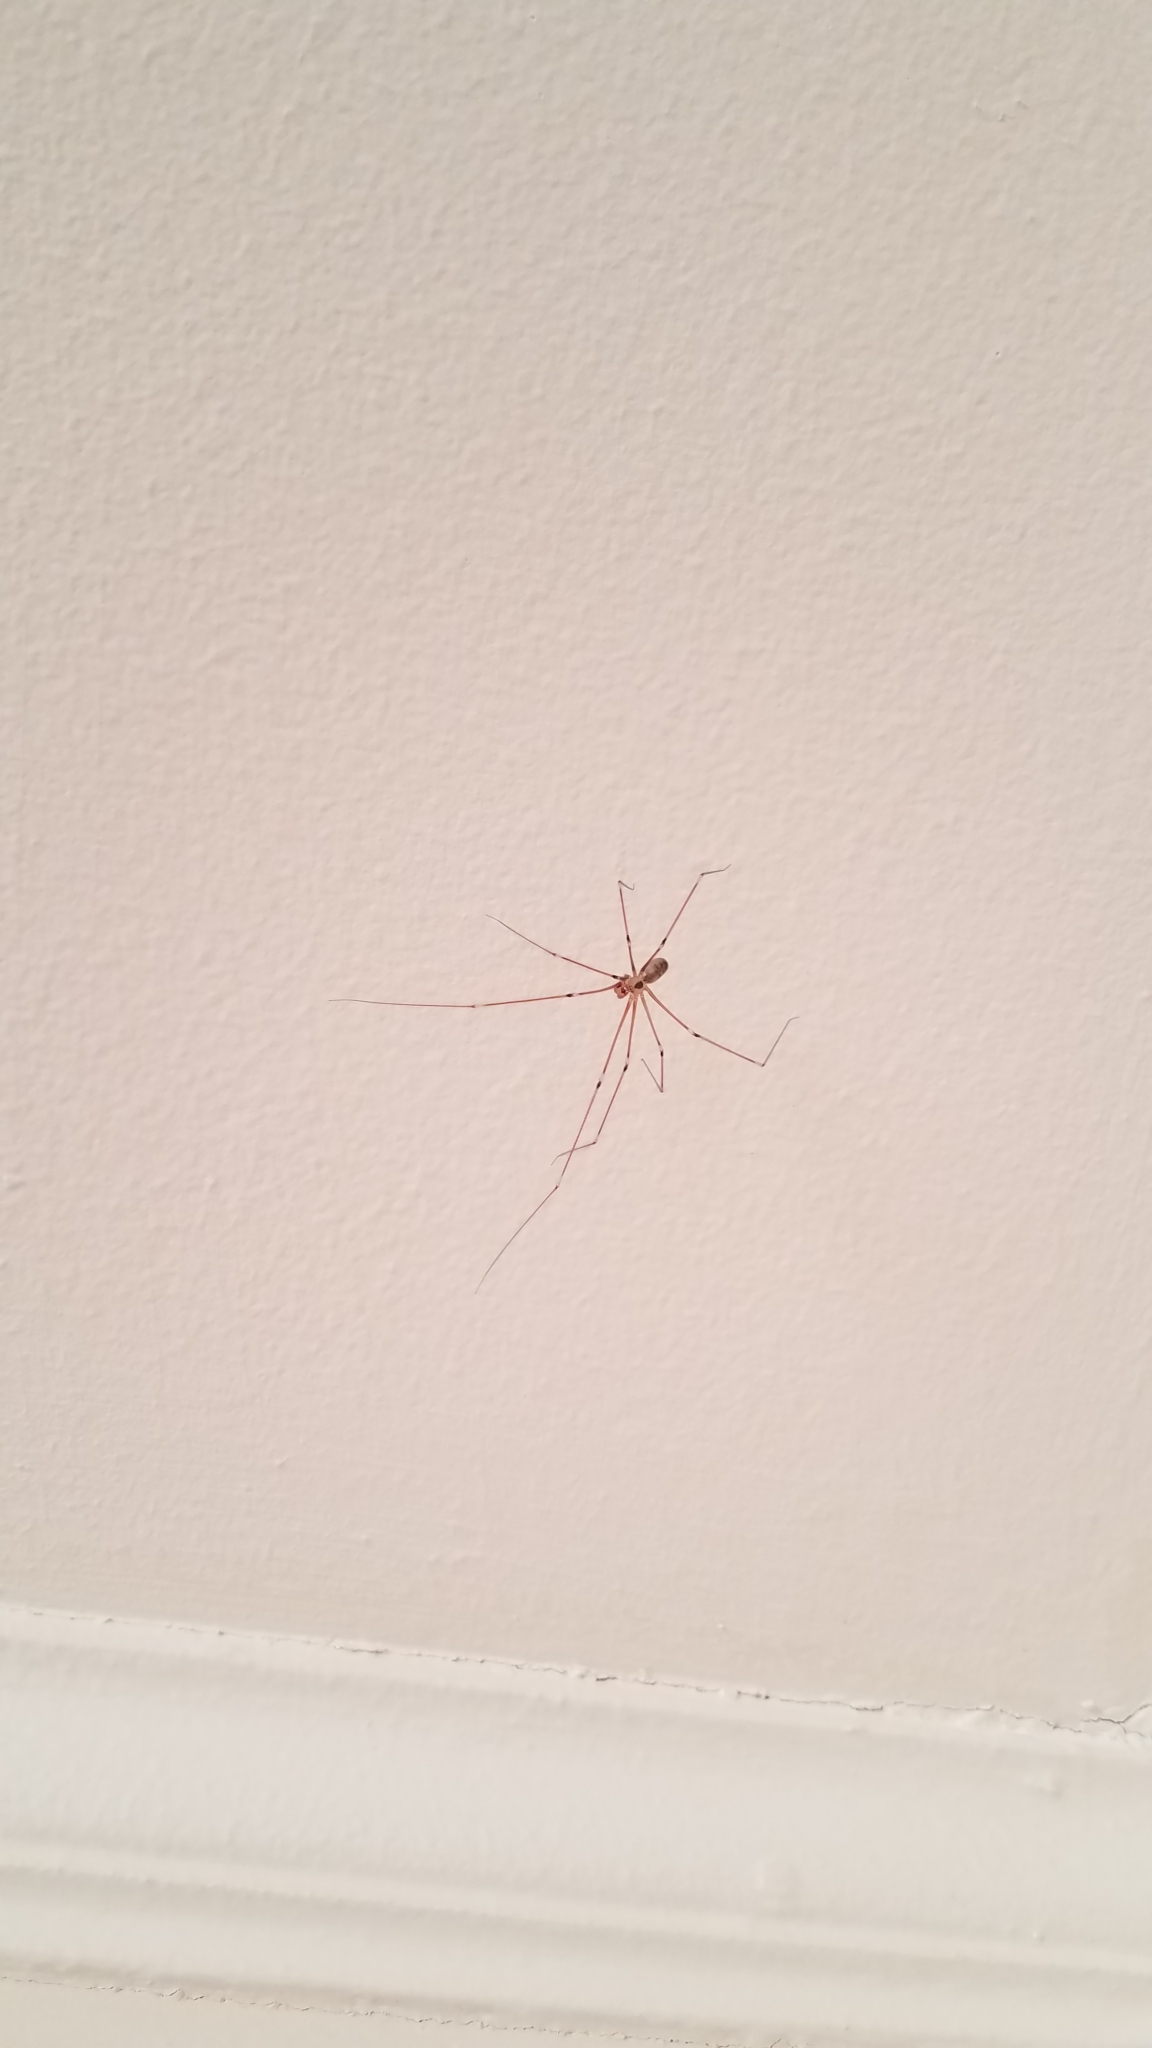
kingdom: Animalia
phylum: Arthropoda
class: Arachnida
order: Araneae
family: Pholcidae
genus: Pholcus
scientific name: Pholcus phalangioides
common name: Longbodied cellar spider
